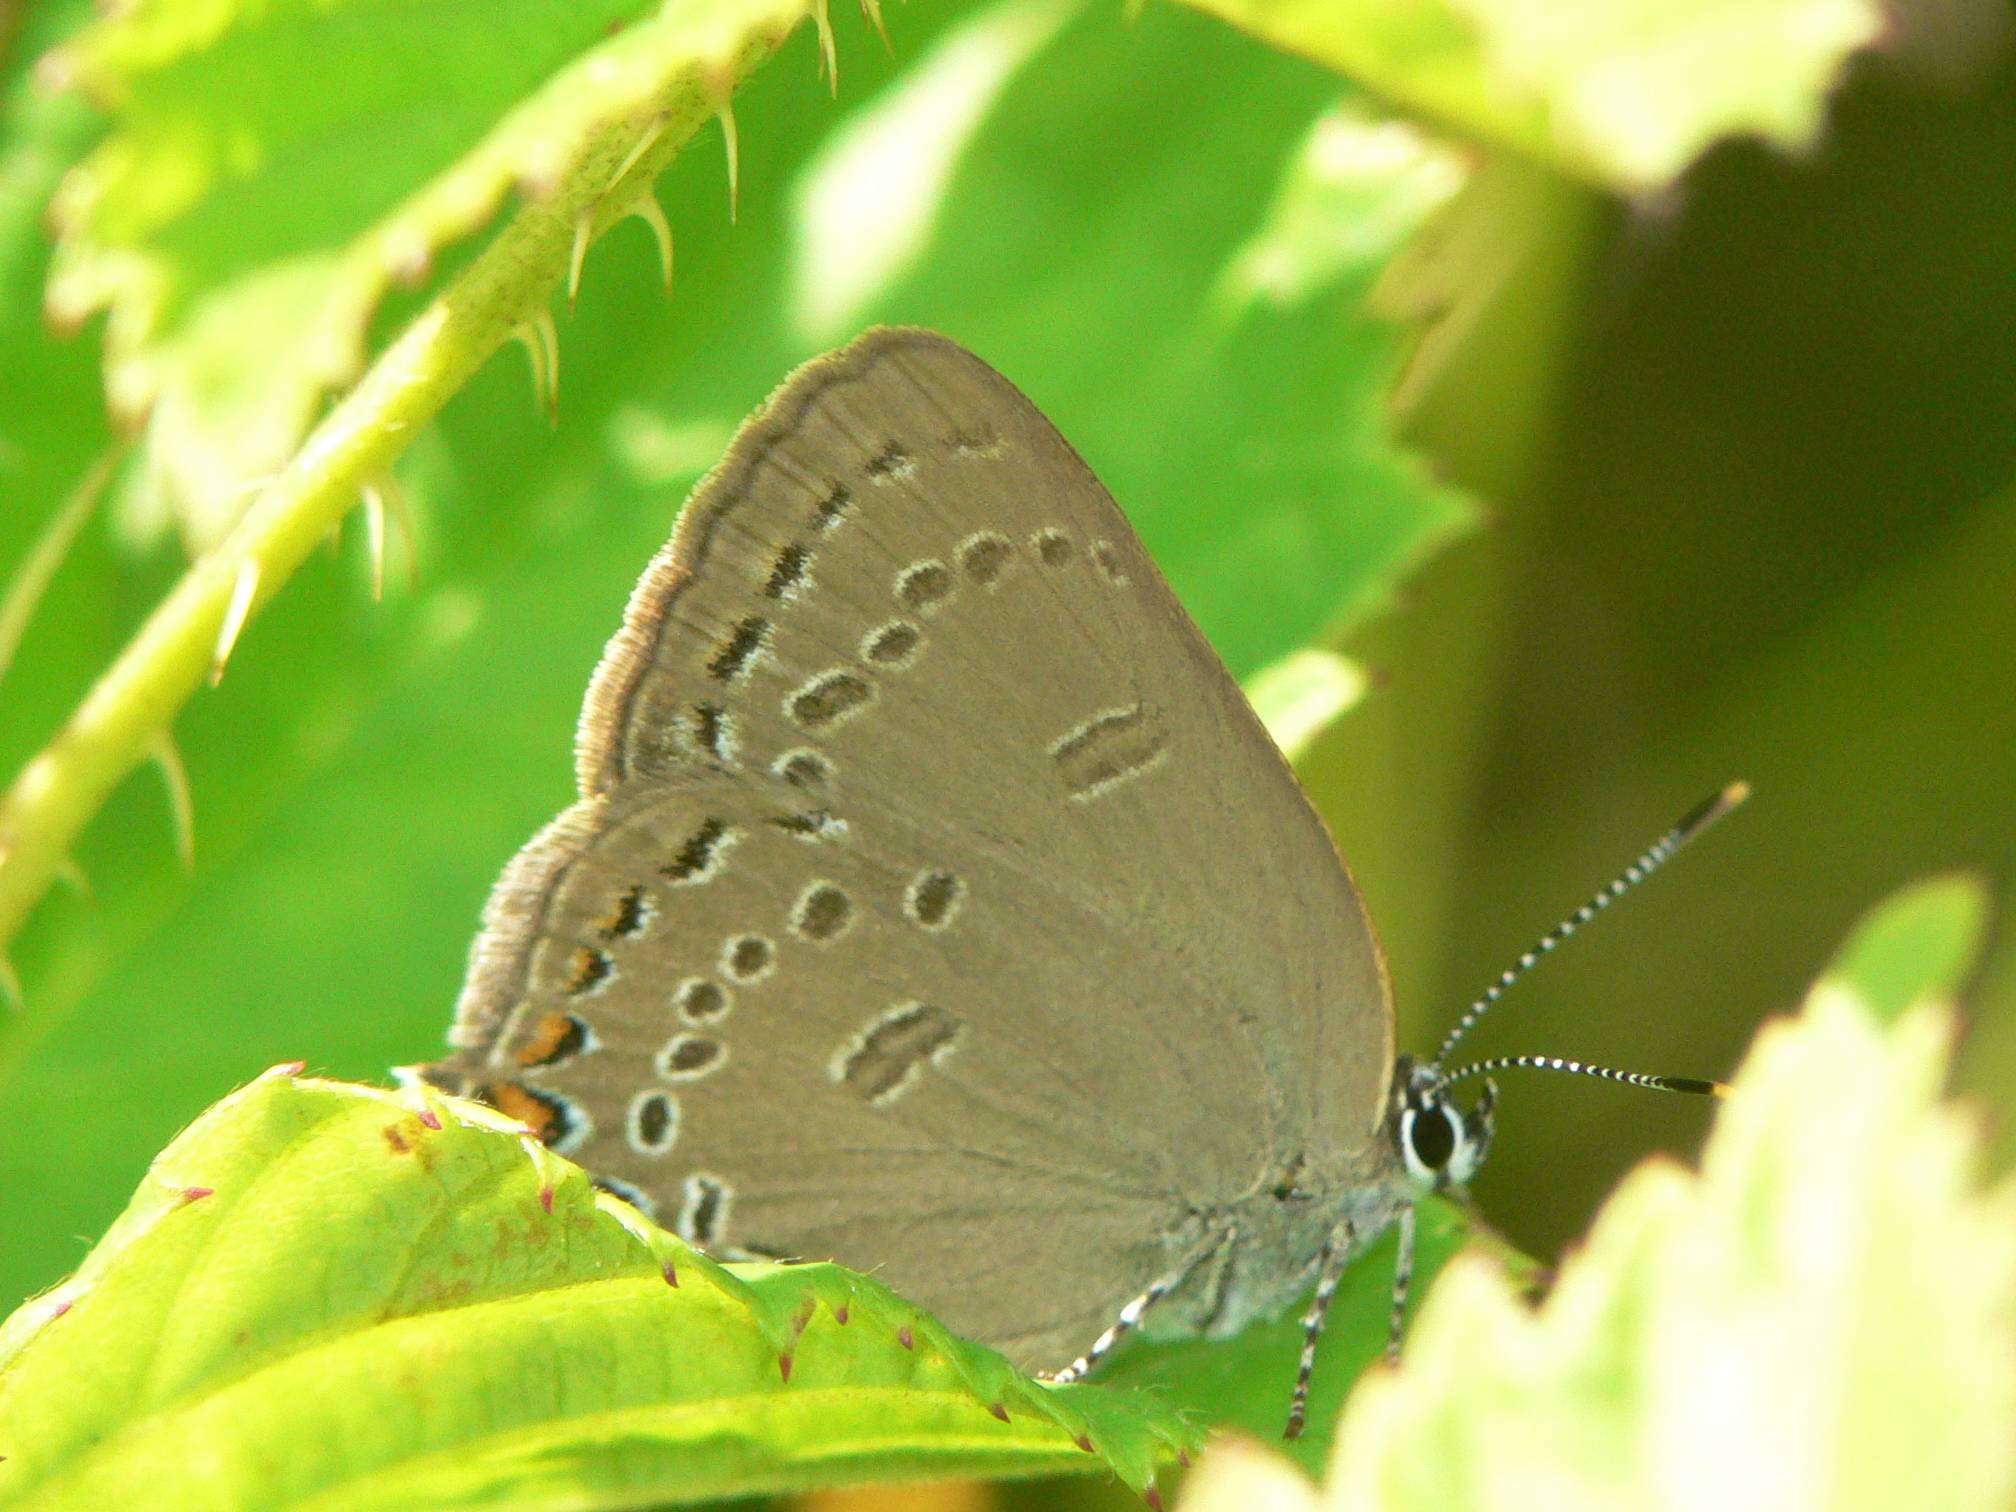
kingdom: Animalia
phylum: Arthropoda
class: Insecta
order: Lepidoptera
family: Lycaenidae
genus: Satyrium
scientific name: Satyrium edwardsii
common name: Edwards' hairstreak
